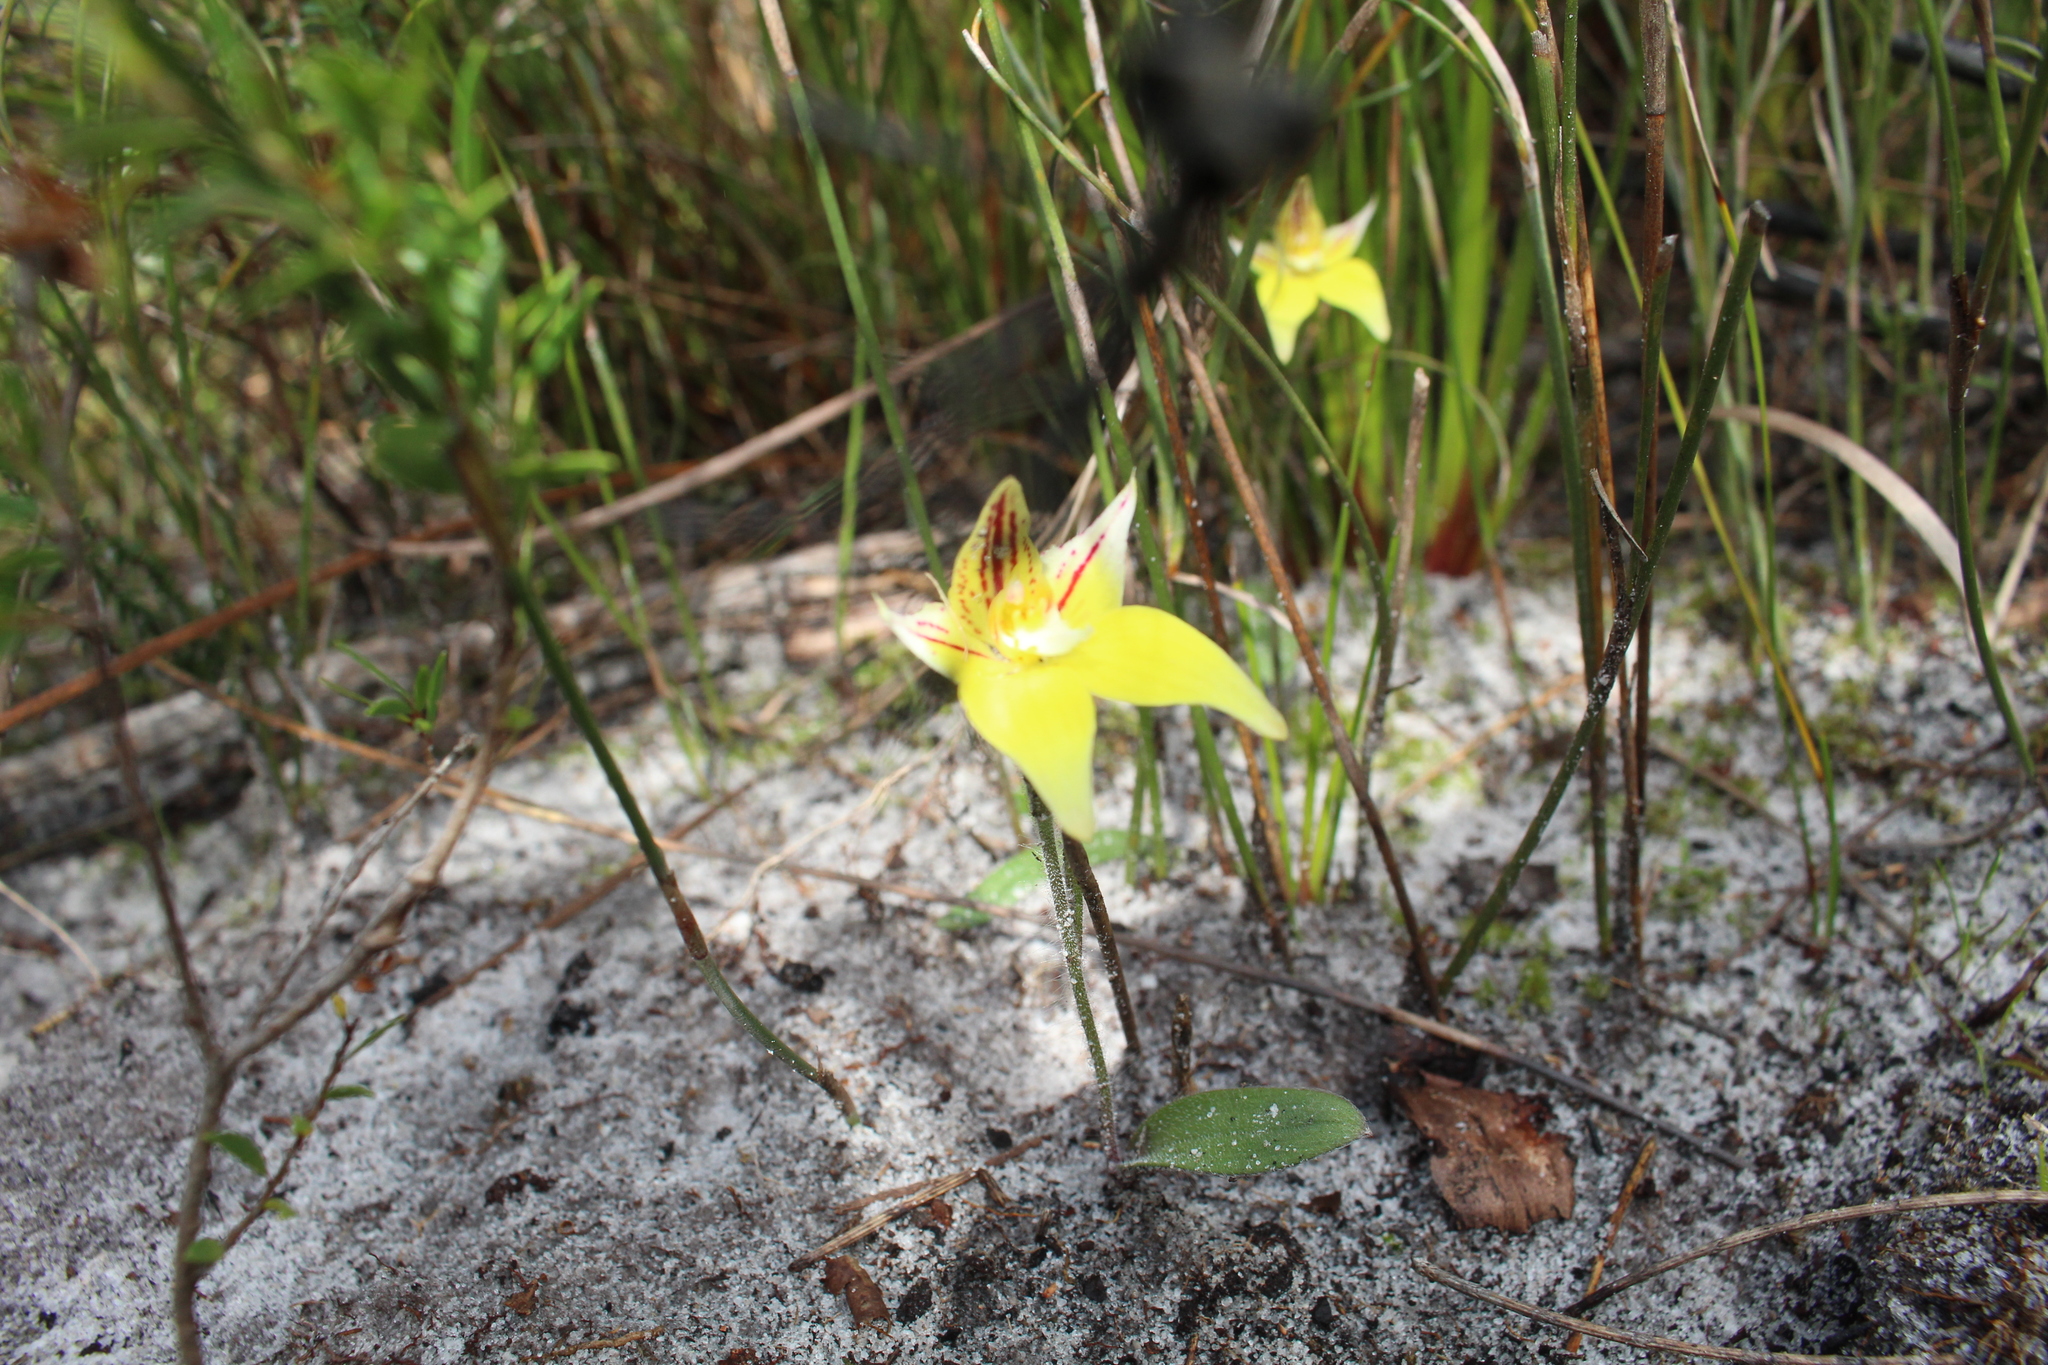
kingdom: Plantae
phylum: Tracheophyta
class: Liliopsida
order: Asparagales
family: Orchidaceae
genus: Caladenia
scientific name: Caladenia flava
